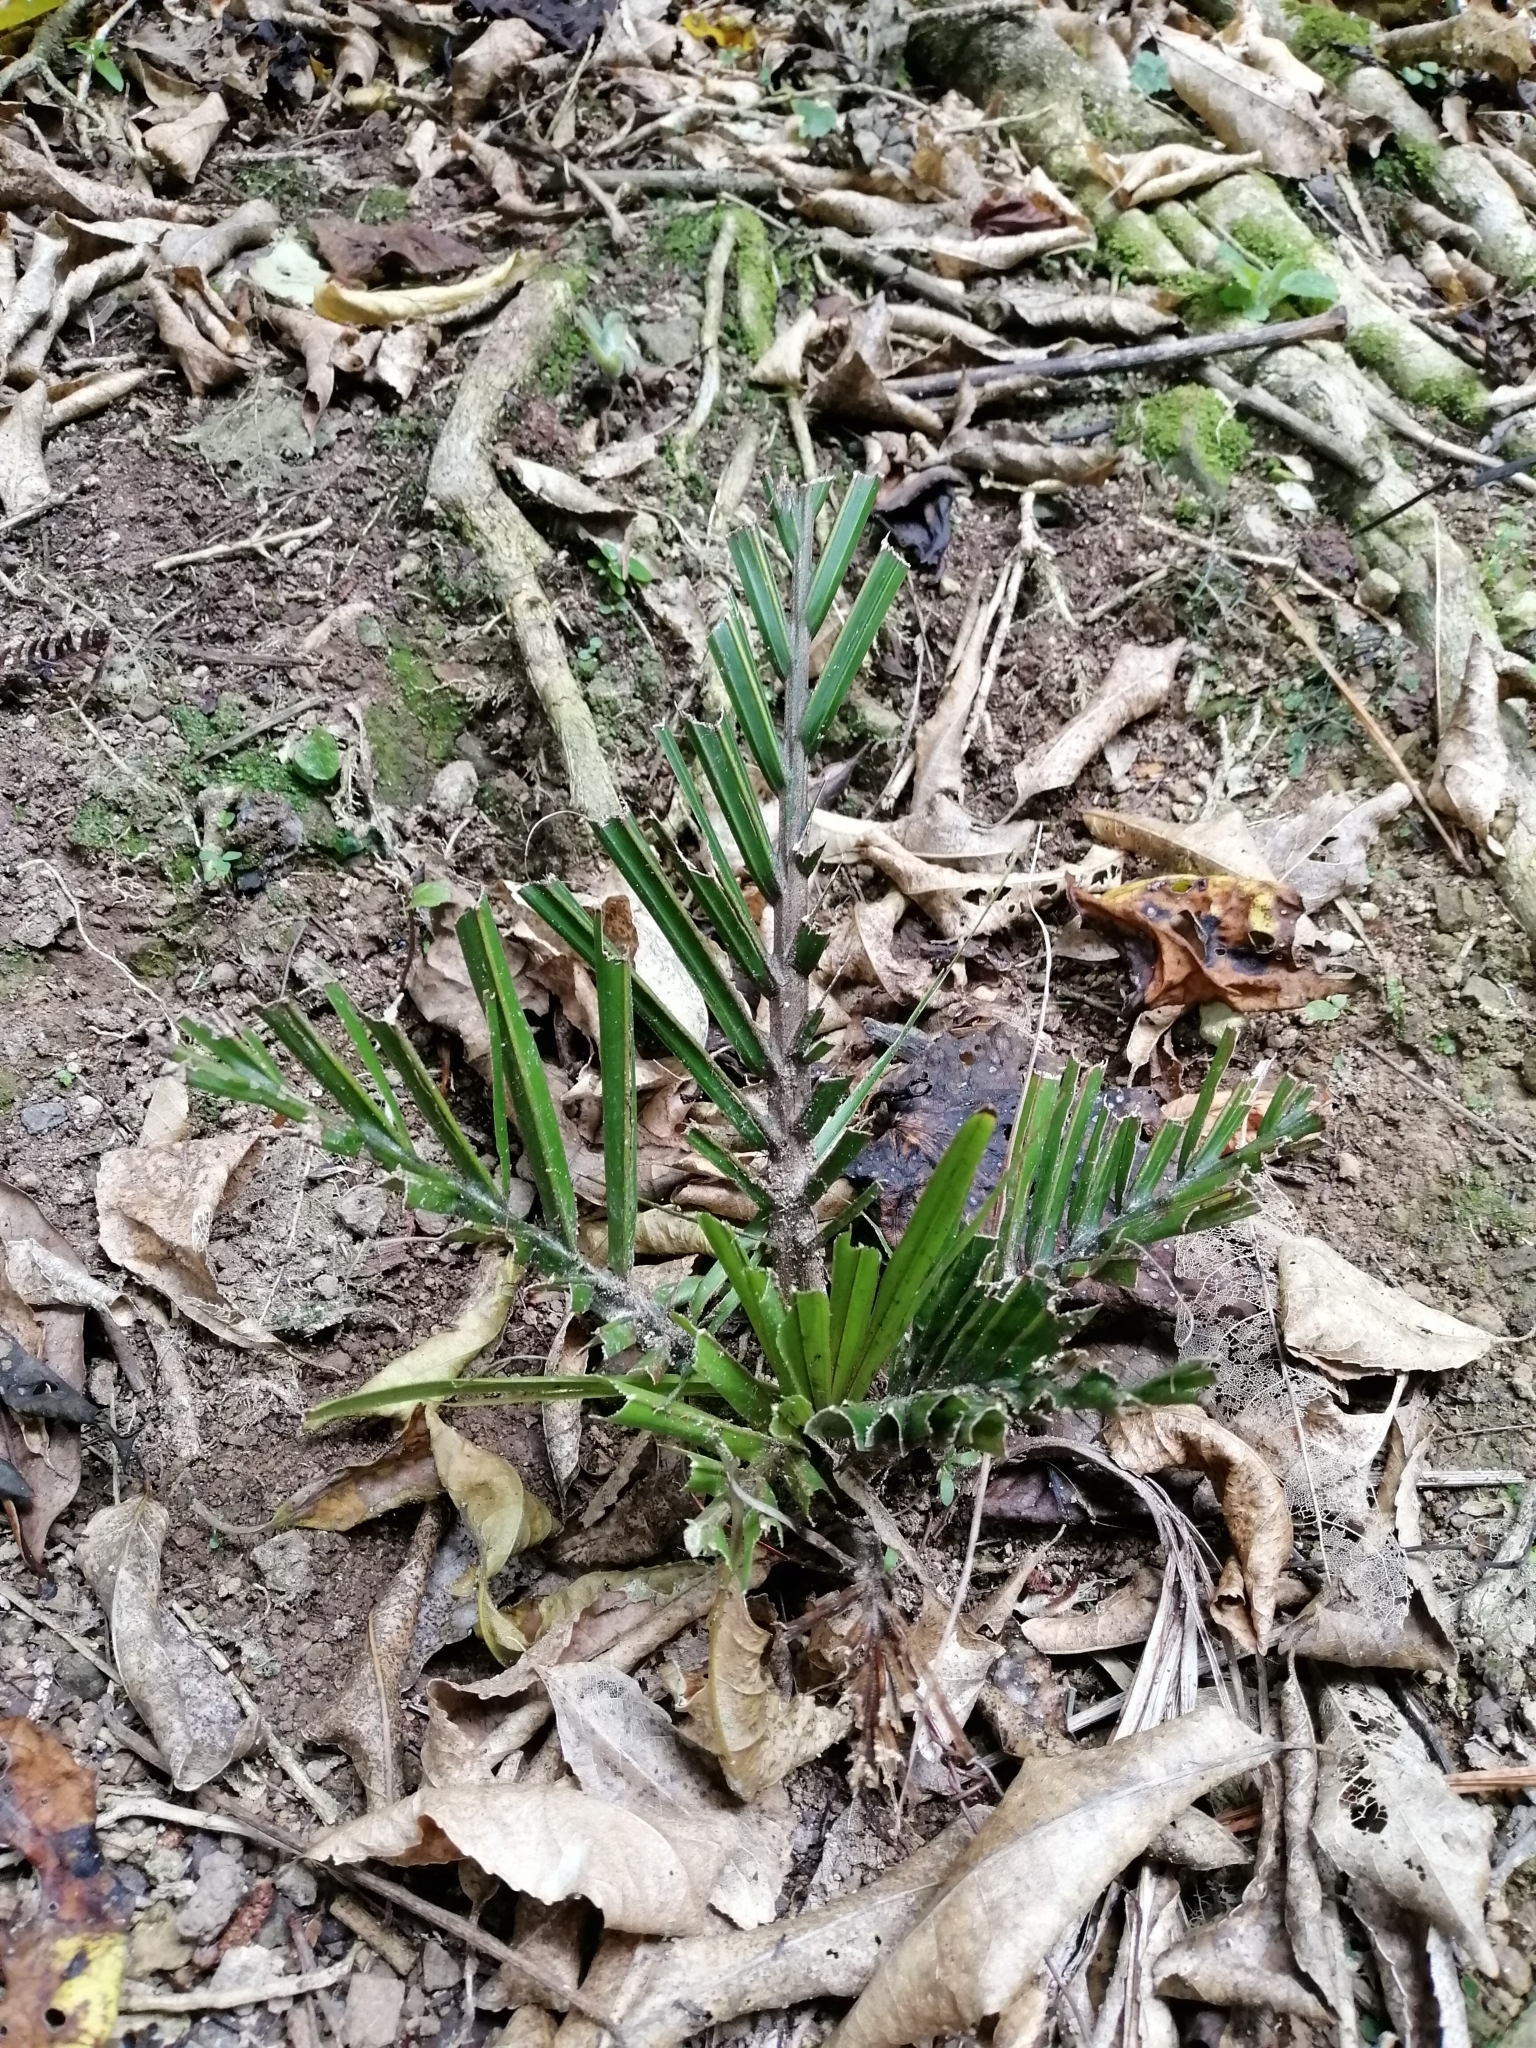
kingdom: Plantae
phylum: Tracheophyta
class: Liliopsida
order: Arecales
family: Arecaceae
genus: Rhopalostylis
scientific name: Rhopalostylis sapida
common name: Feather-duster palm
